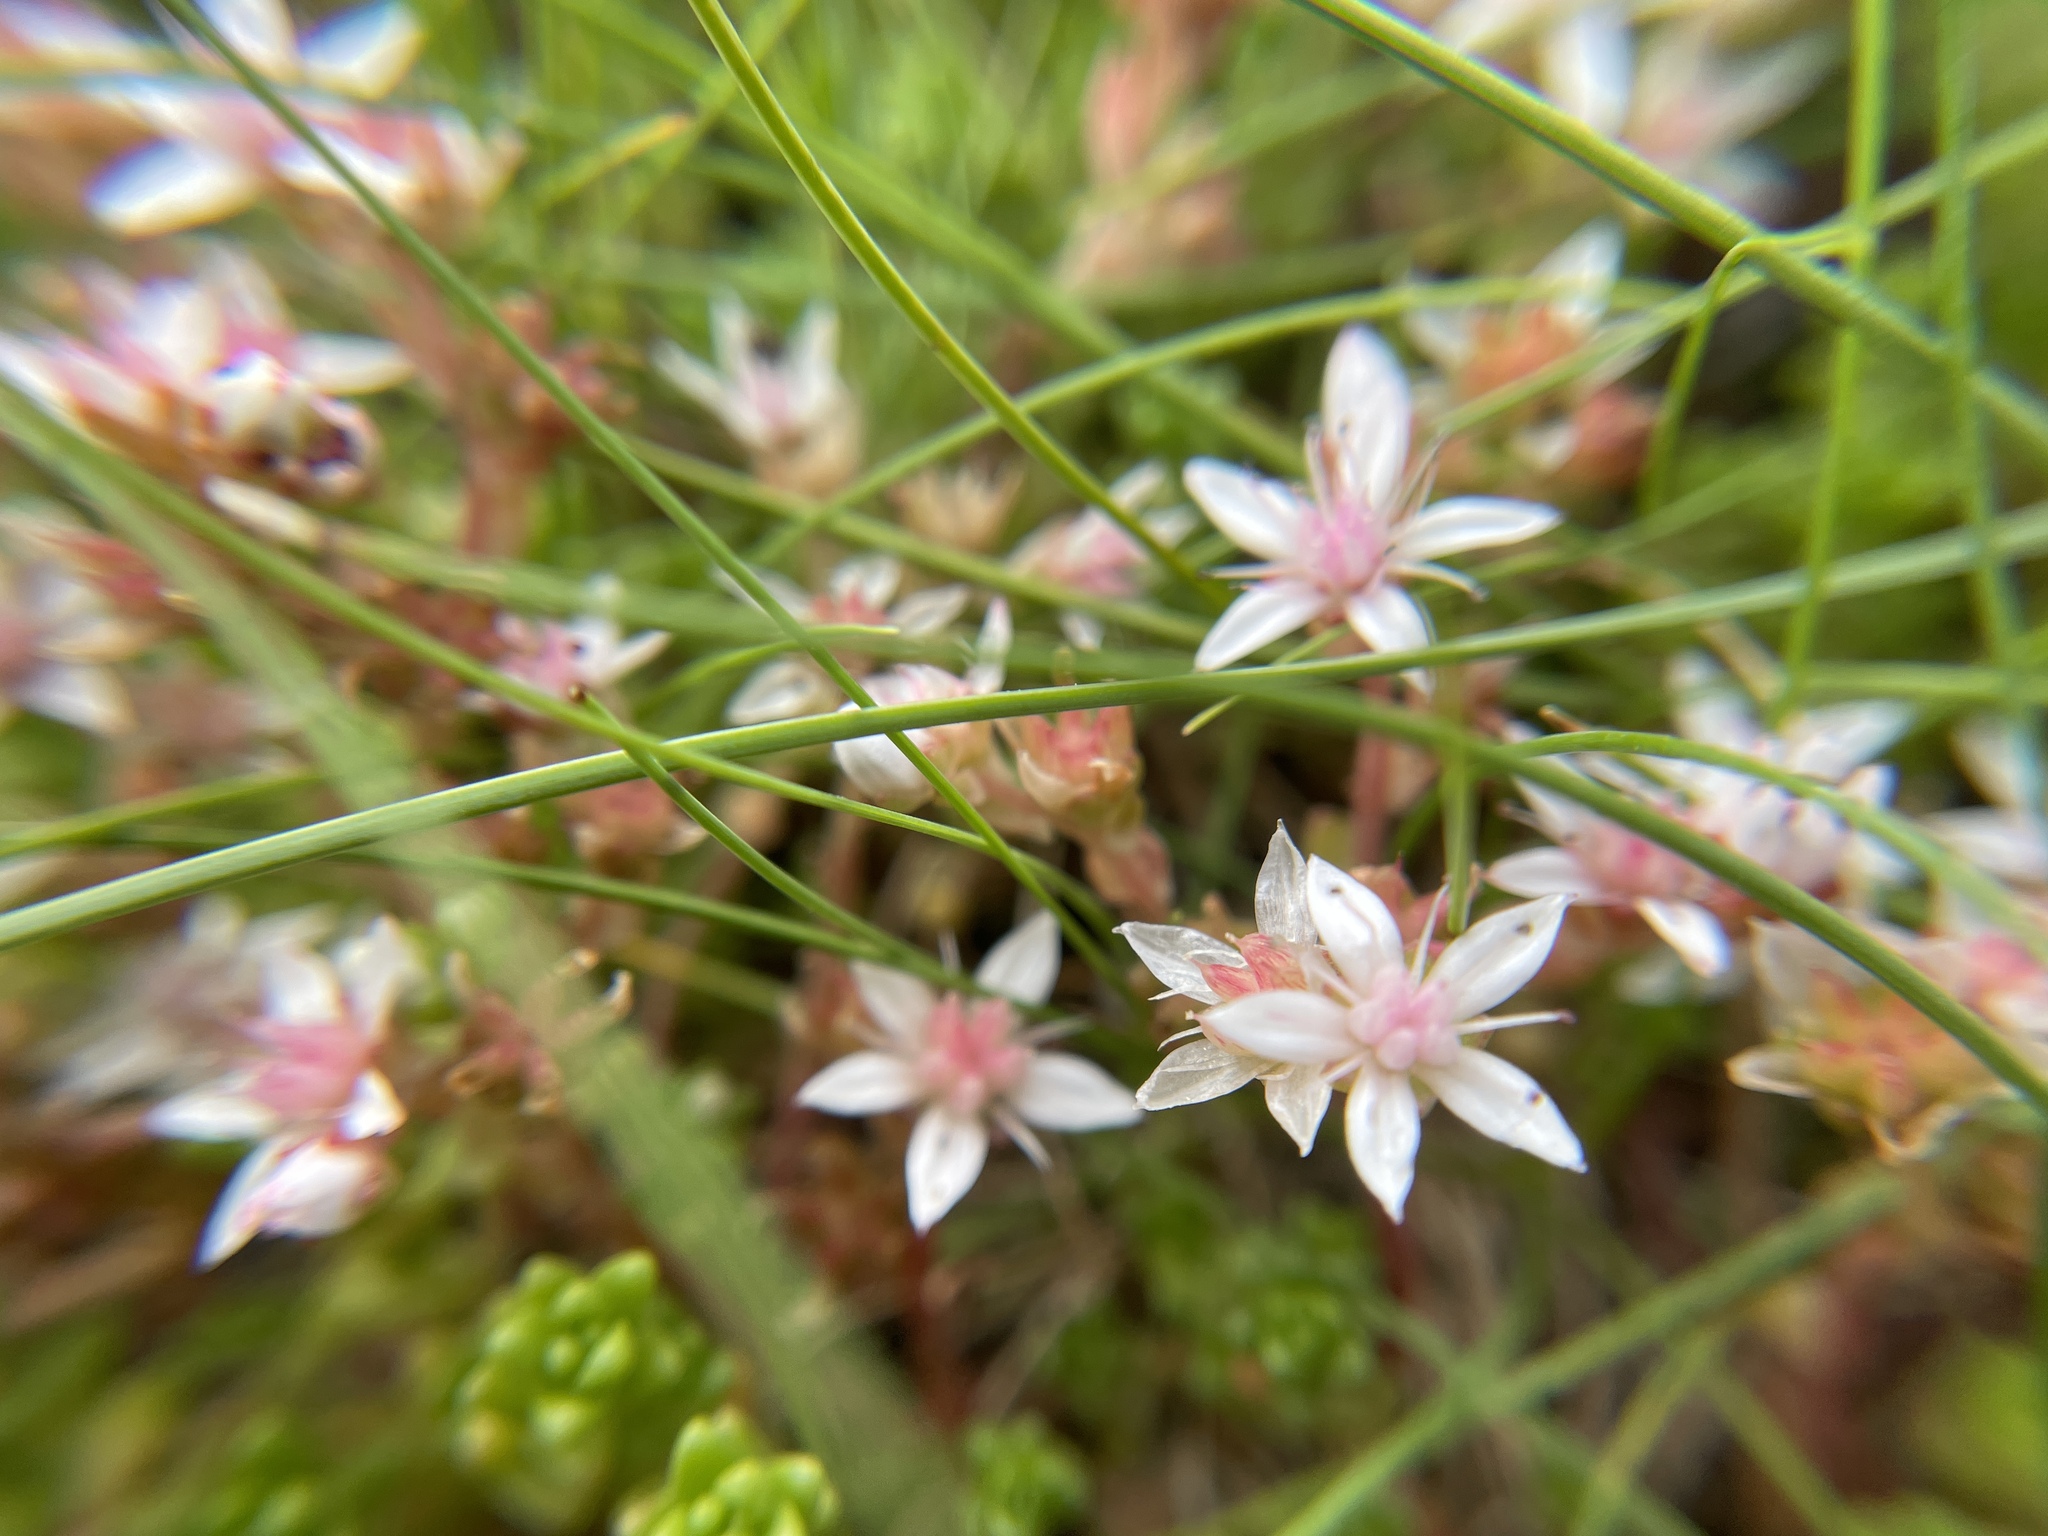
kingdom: Plantae
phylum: Tracheophyta
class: Magnoliopsida
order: Saxifragales
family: Crassulaceae
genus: Sedum
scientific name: Sedum anglicum
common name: English stonecrop
